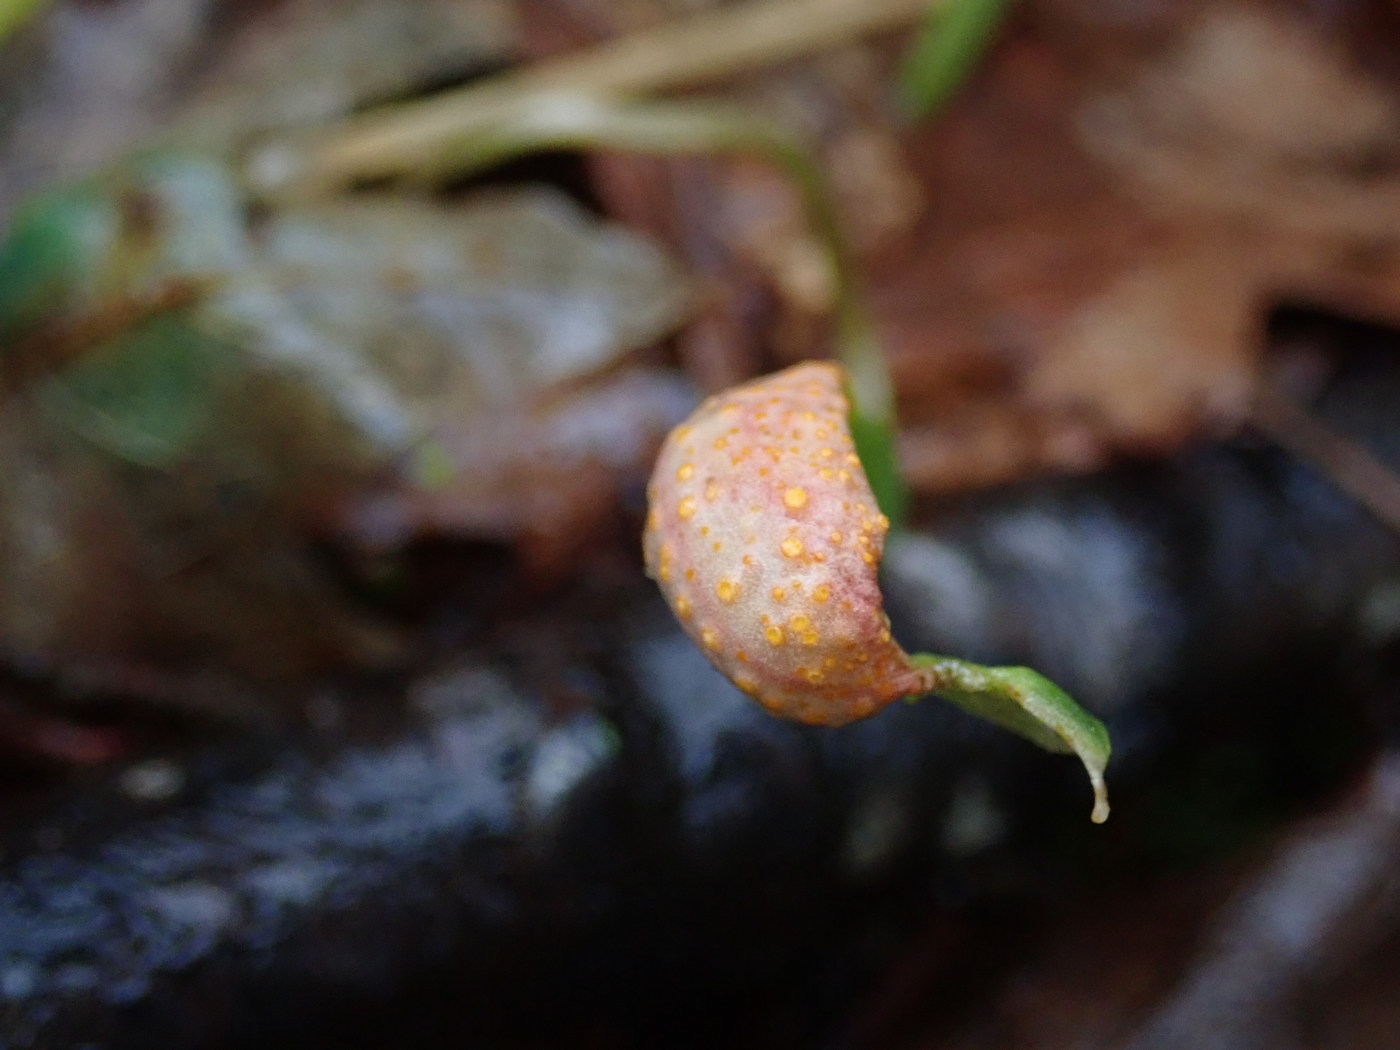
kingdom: Fungi
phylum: Basidiomycota
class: Pucciniomycetes
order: Pucciniales
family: Pucciniaceae
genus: Puccinia
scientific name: Puccinia mariae-wilsoniae
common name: Spring beauty rust
